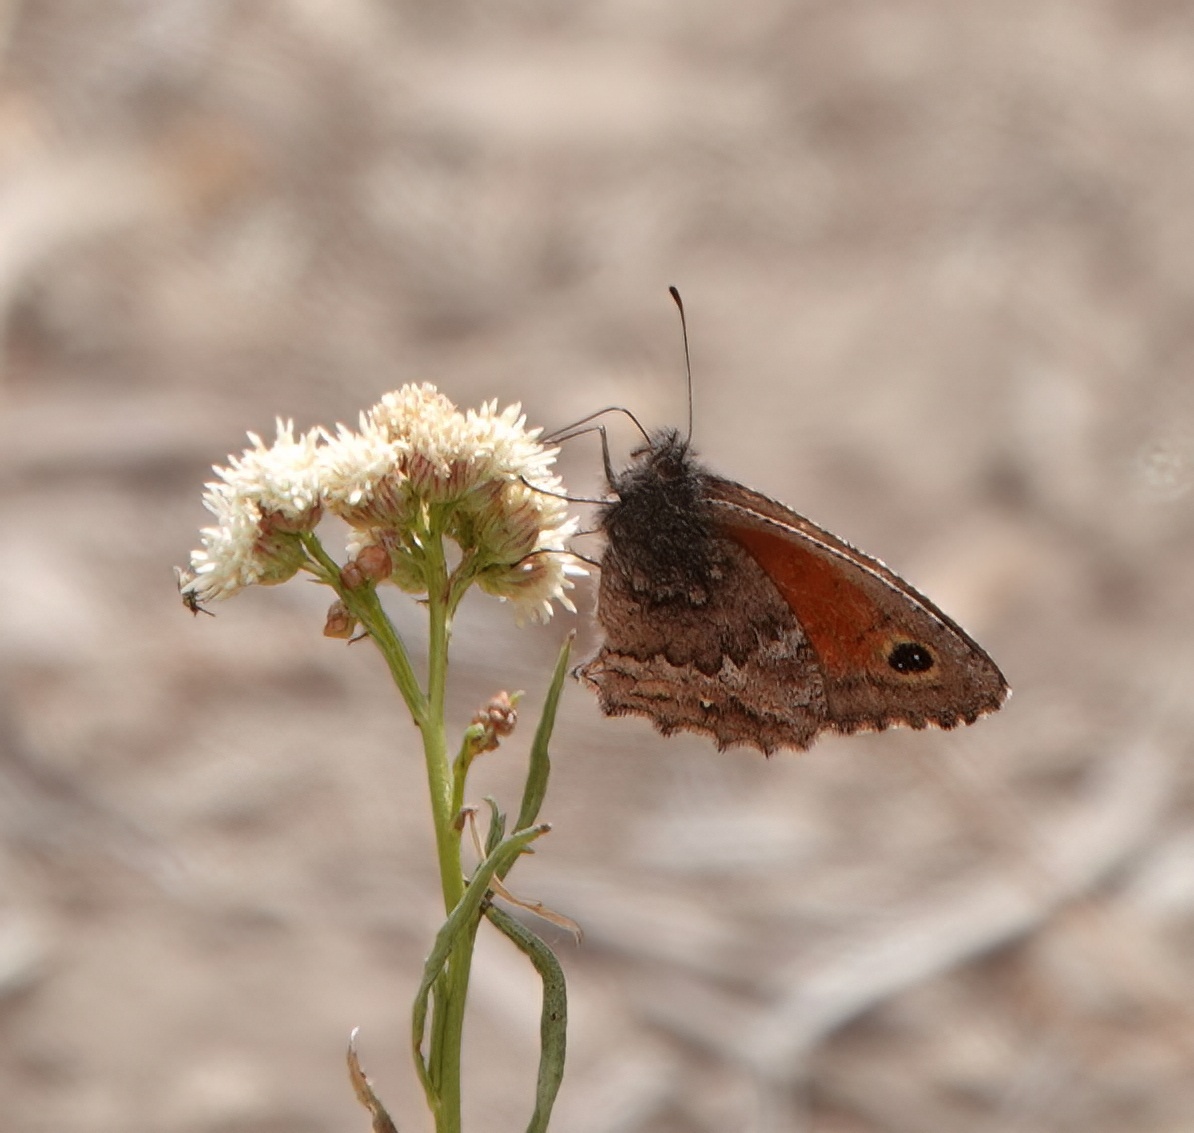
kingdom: Animalia
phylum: Arthropoda
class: Insecta
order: Lepidoptera
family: Nymphalidae
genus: Argyrophorus
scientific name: Argyrophorus
